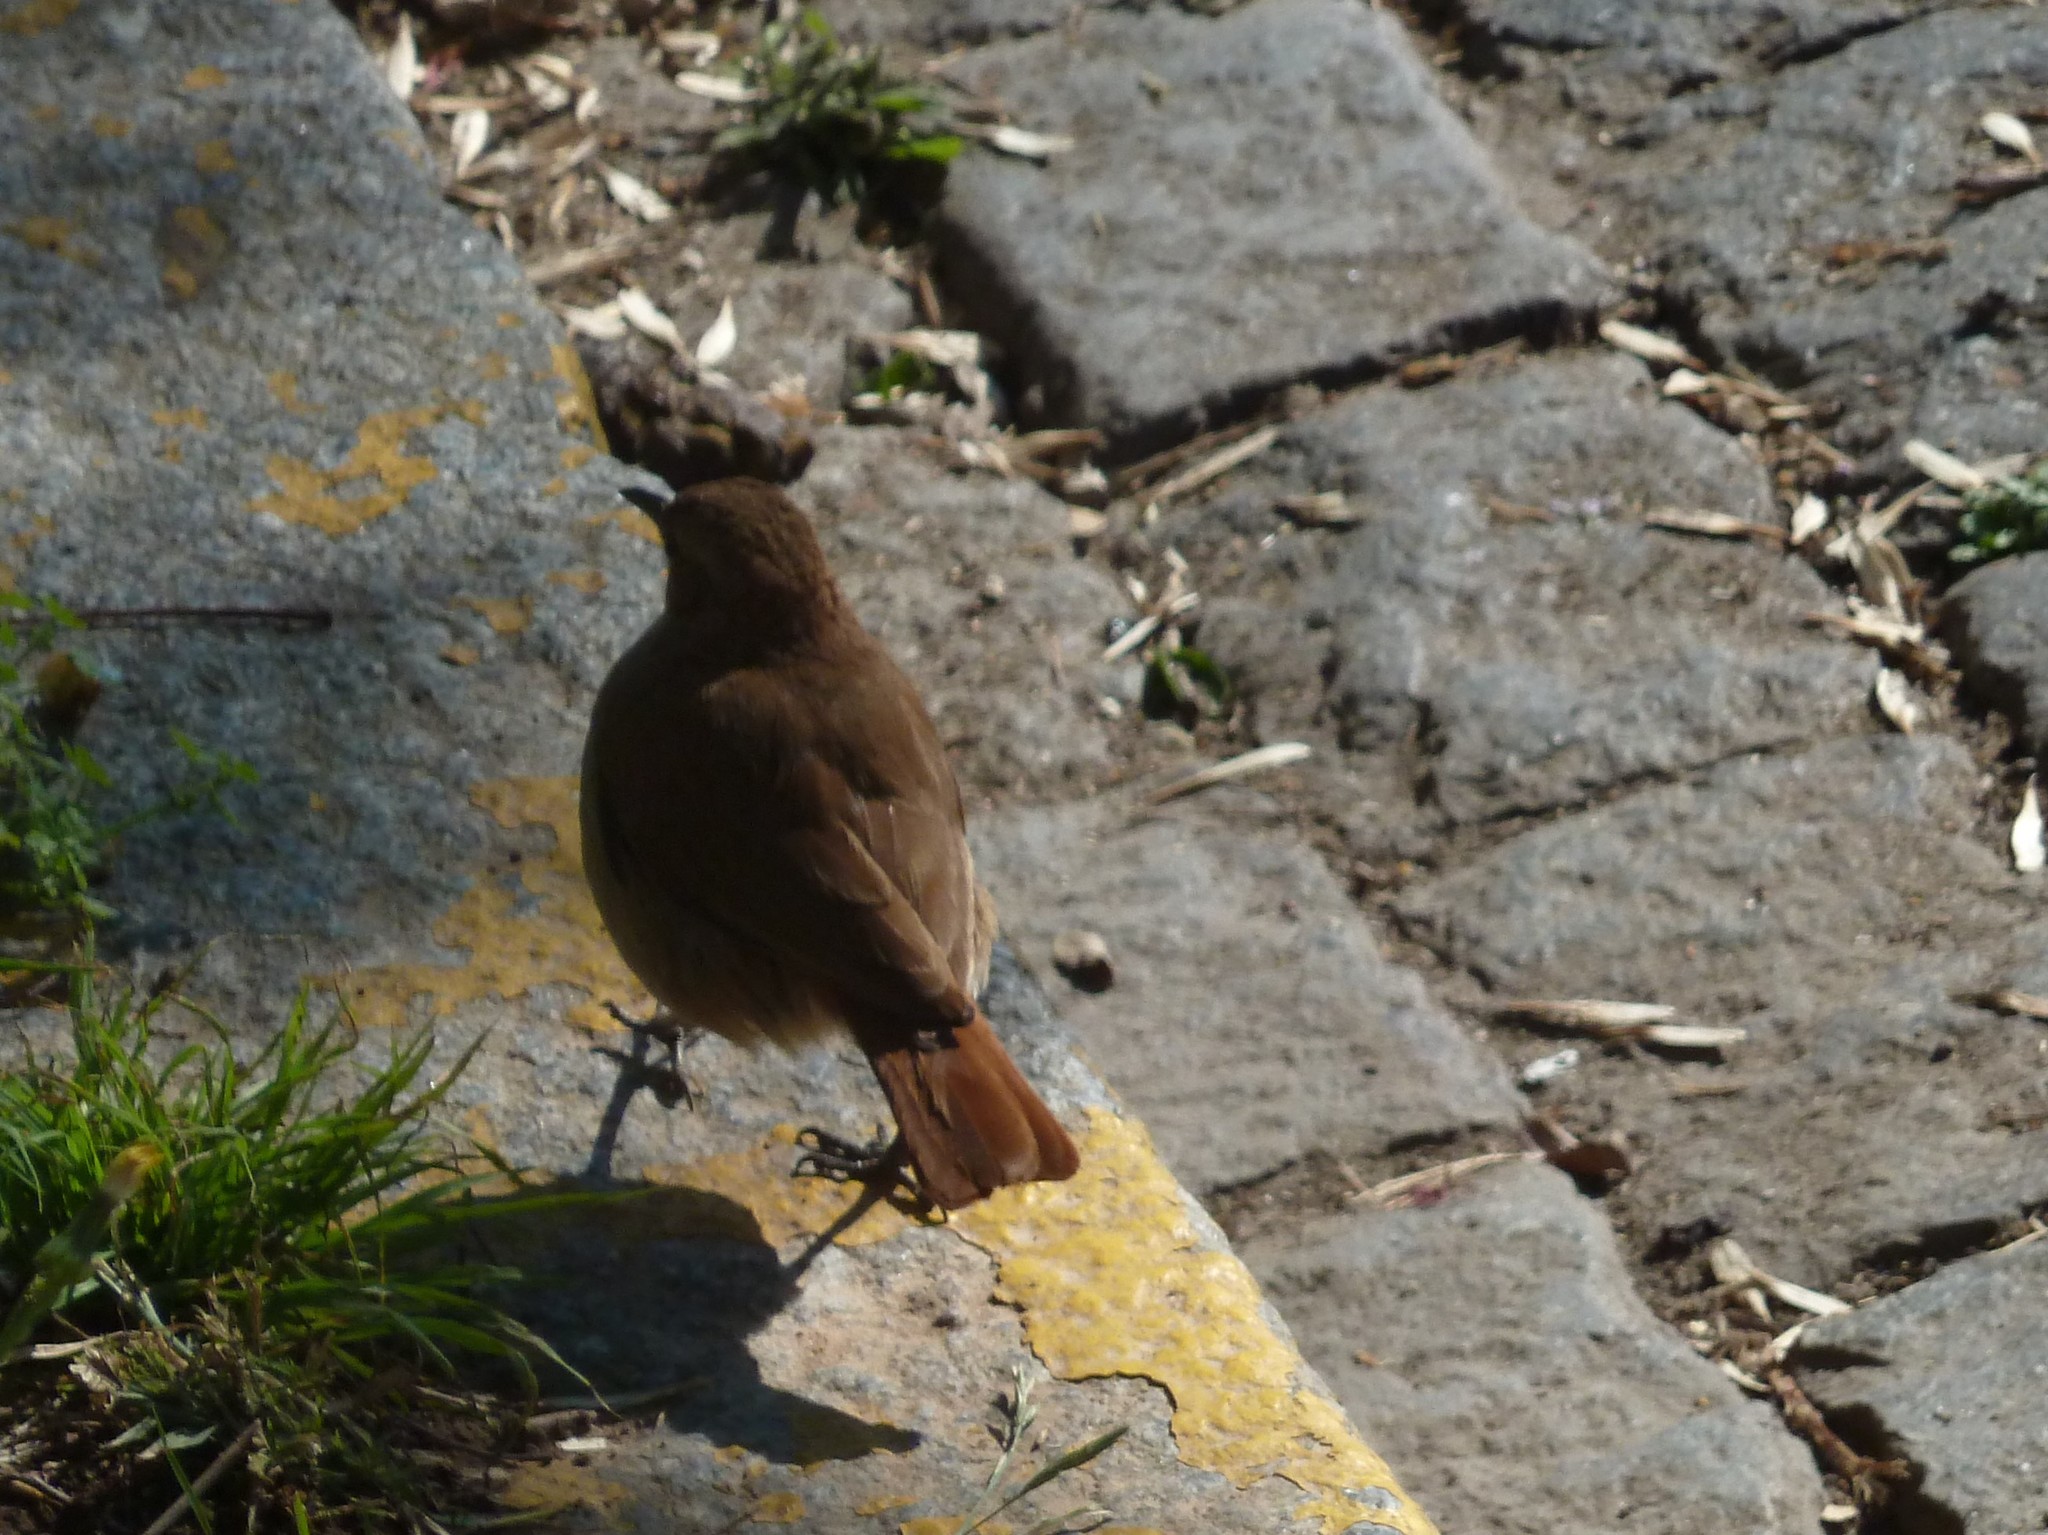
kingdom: Animalia
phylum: Chordata
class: Aves
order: Passeriformes
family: Furnariidae
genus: Furnarius
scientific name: Furnarius rufus
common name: Rufous hornero
